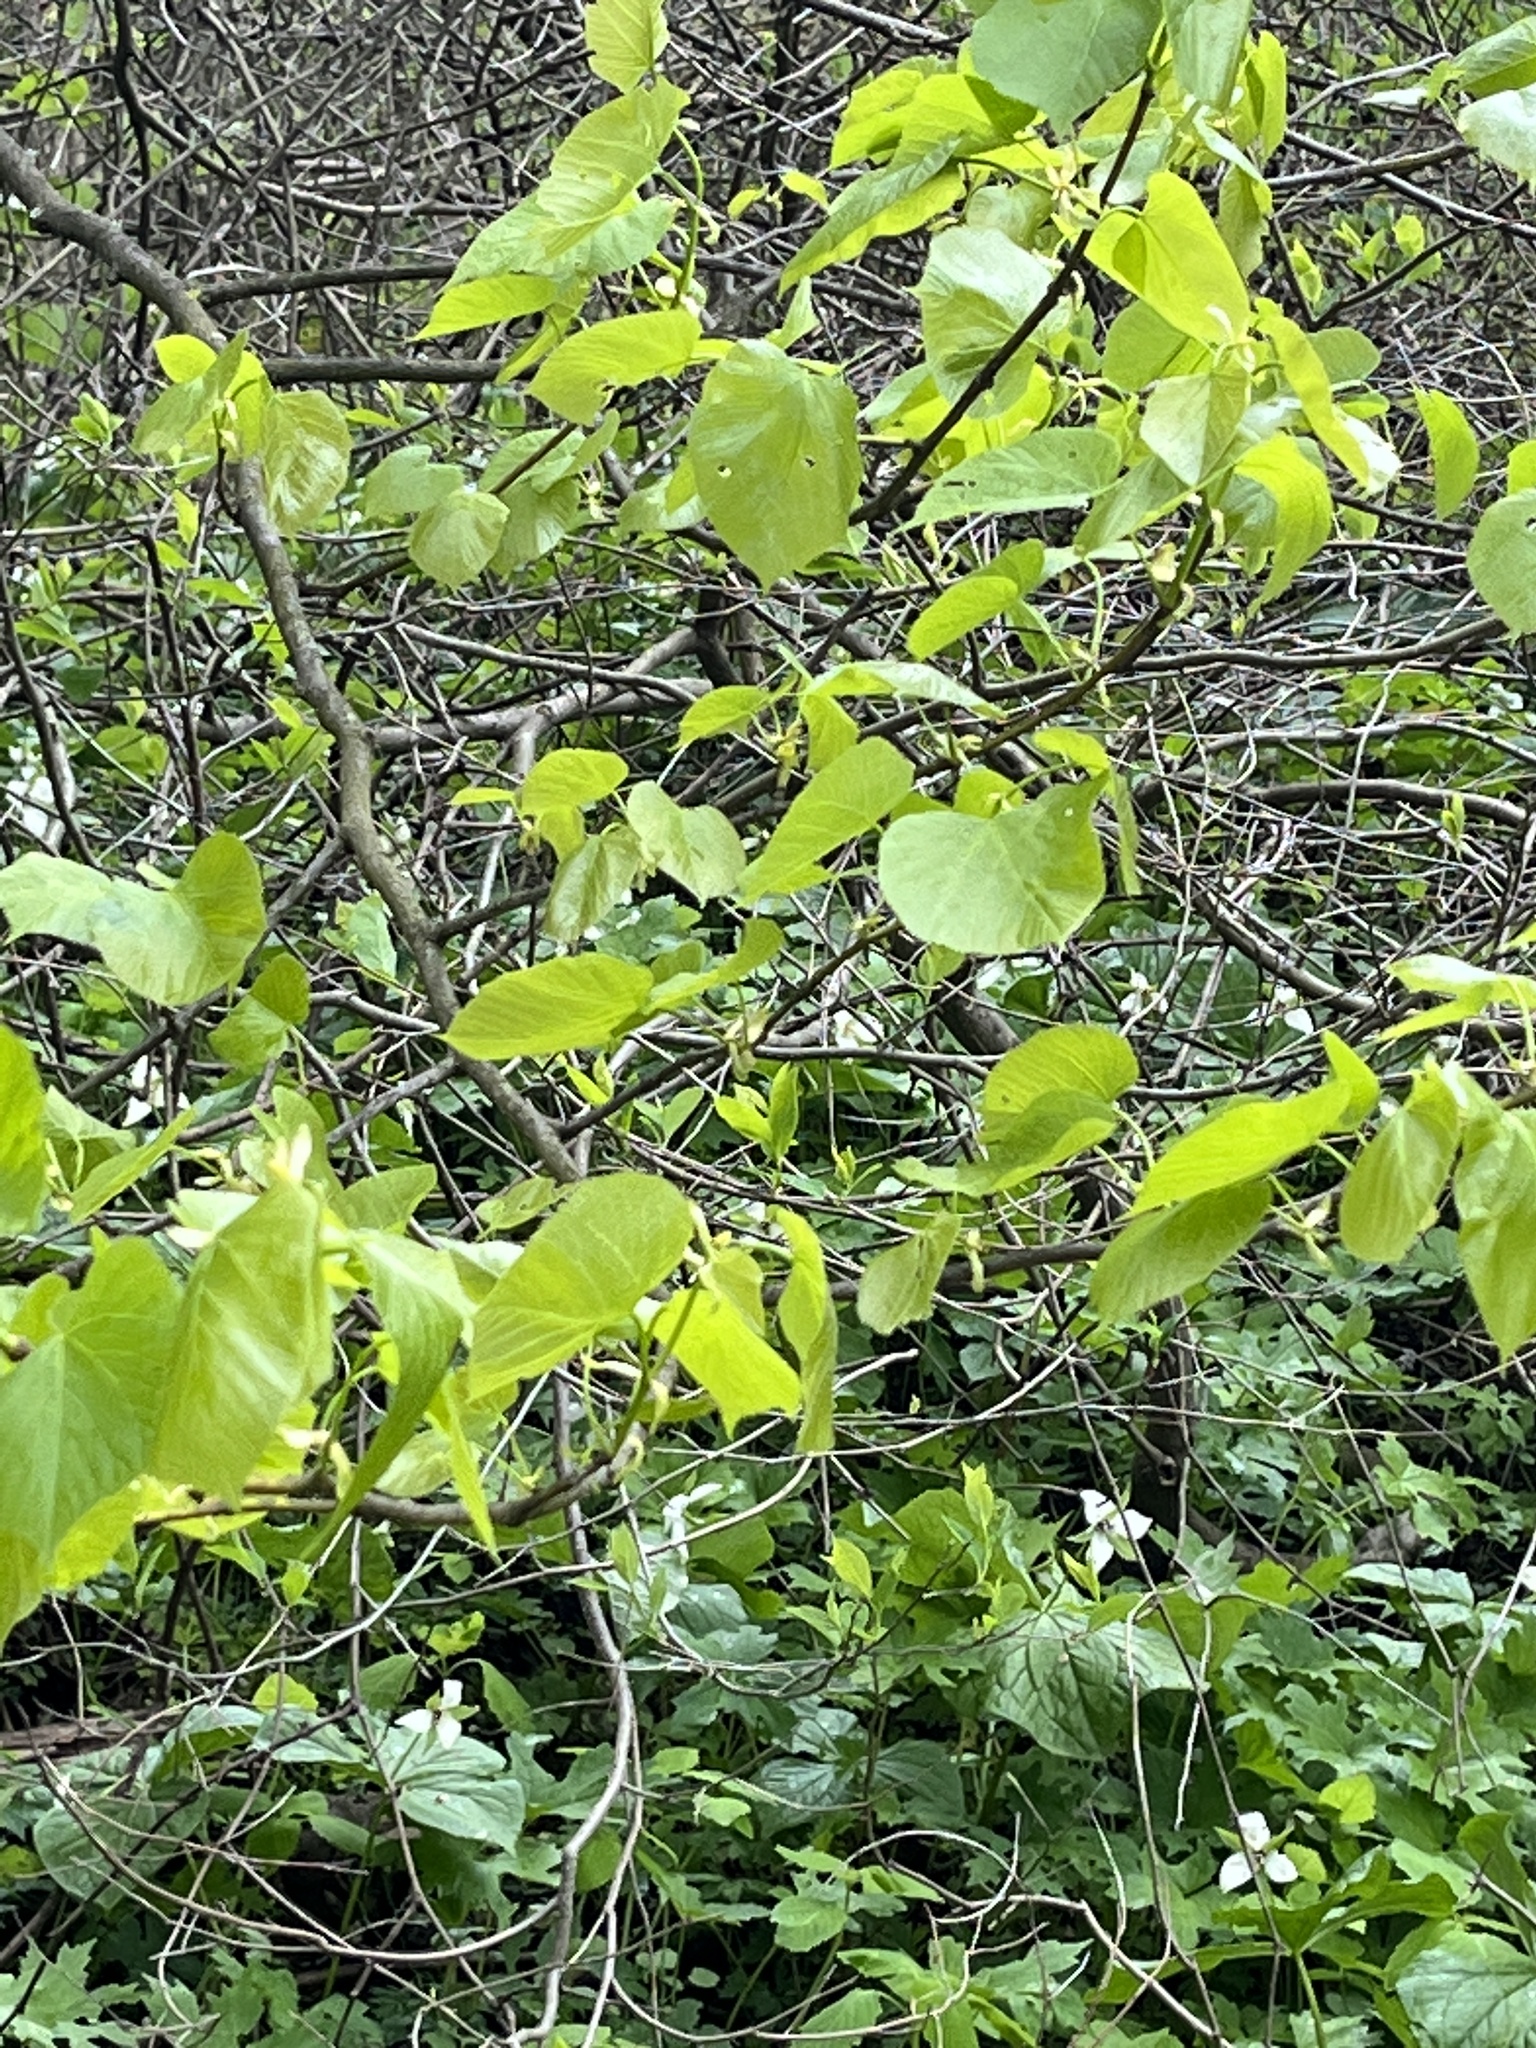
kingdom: Plantae
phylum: Tracheophyta
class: Magnoliopsida
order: Malvales
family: Malvaceae
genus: Tilia
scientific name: Tilia americana
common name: Basswood
